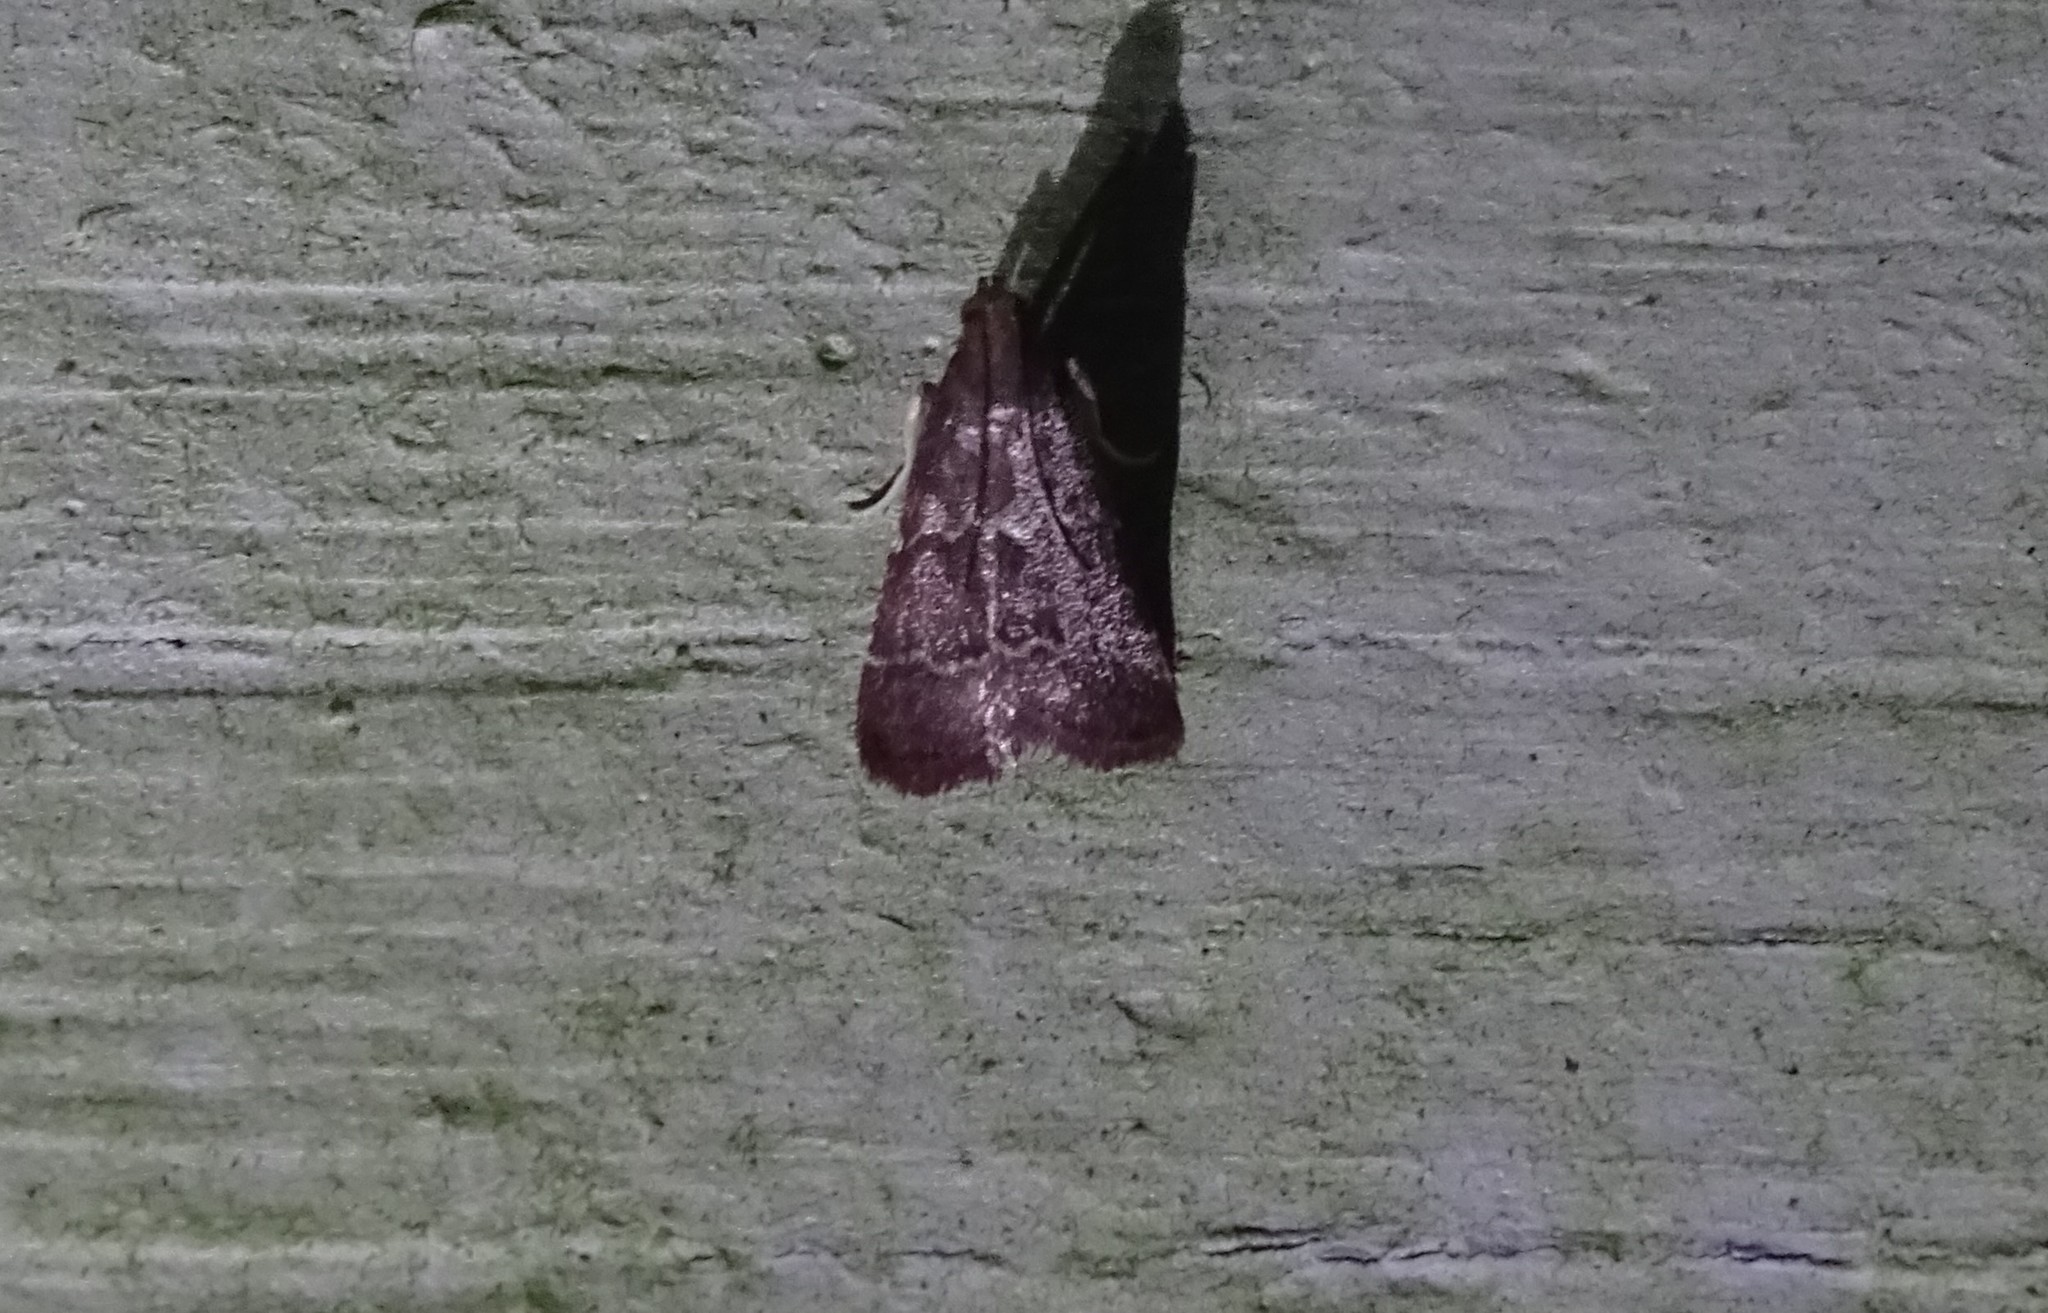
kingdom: Animalia
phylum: Arthropoda
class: Insecta
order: Lepidoptera
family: Pyralidae
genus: Arta
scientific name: Arta
